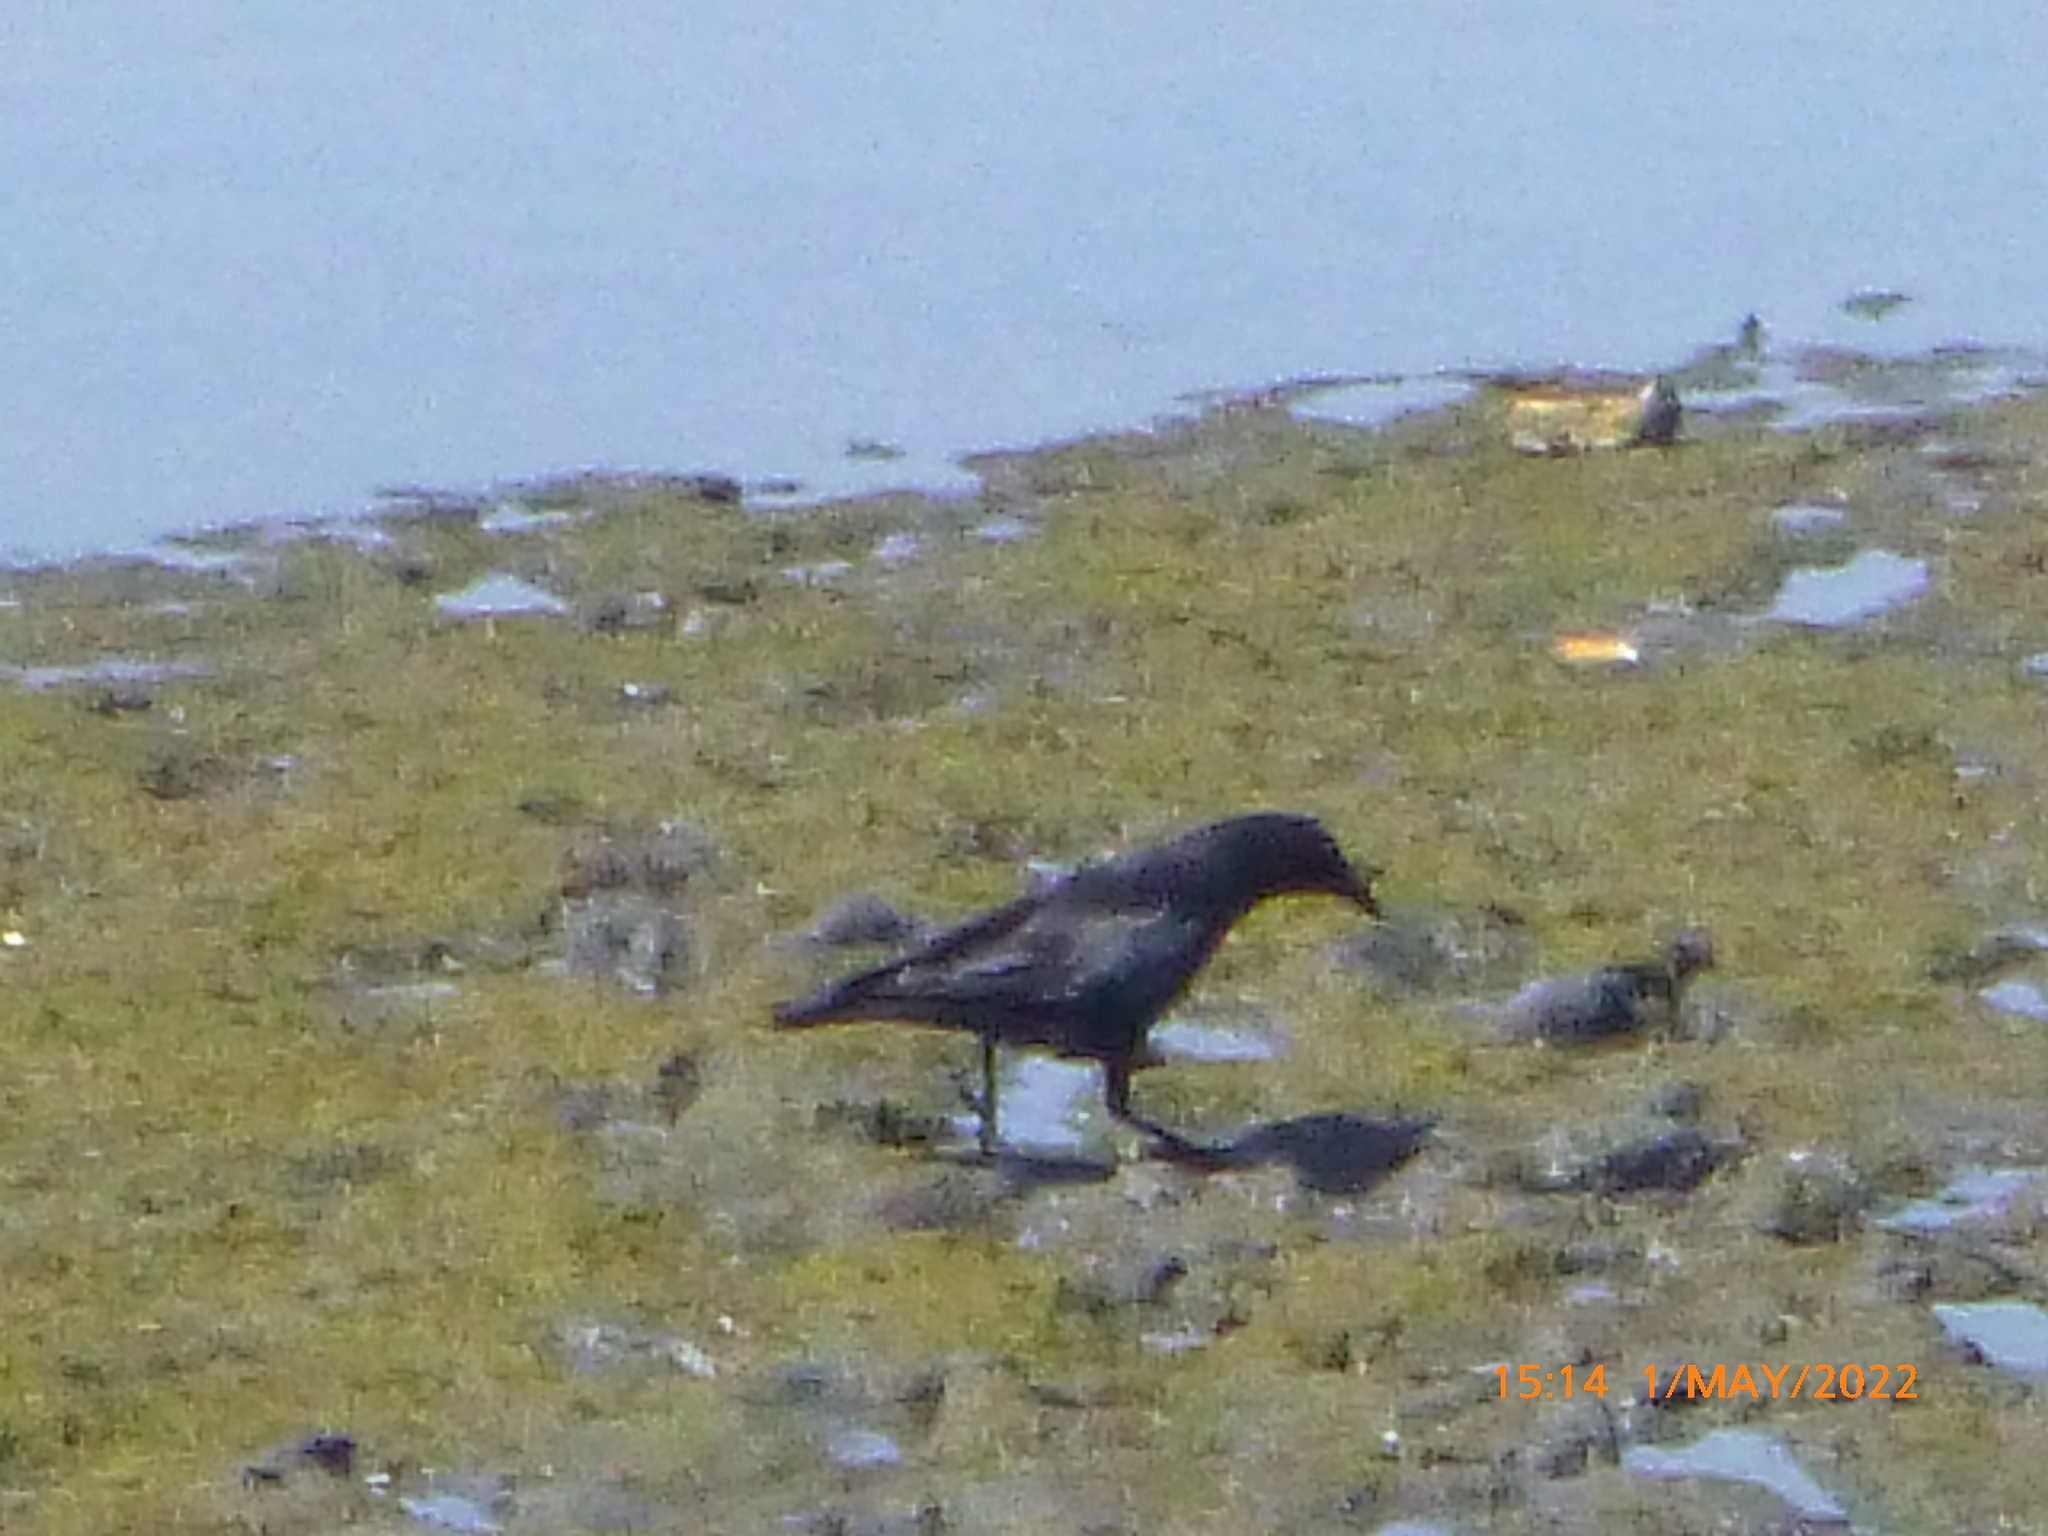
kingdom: Animalia
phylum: Chordata
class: Aves
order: Passeriformes
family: Corvidae
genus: Corvus
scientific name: Corvus brachyrhynchos
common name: American crow
